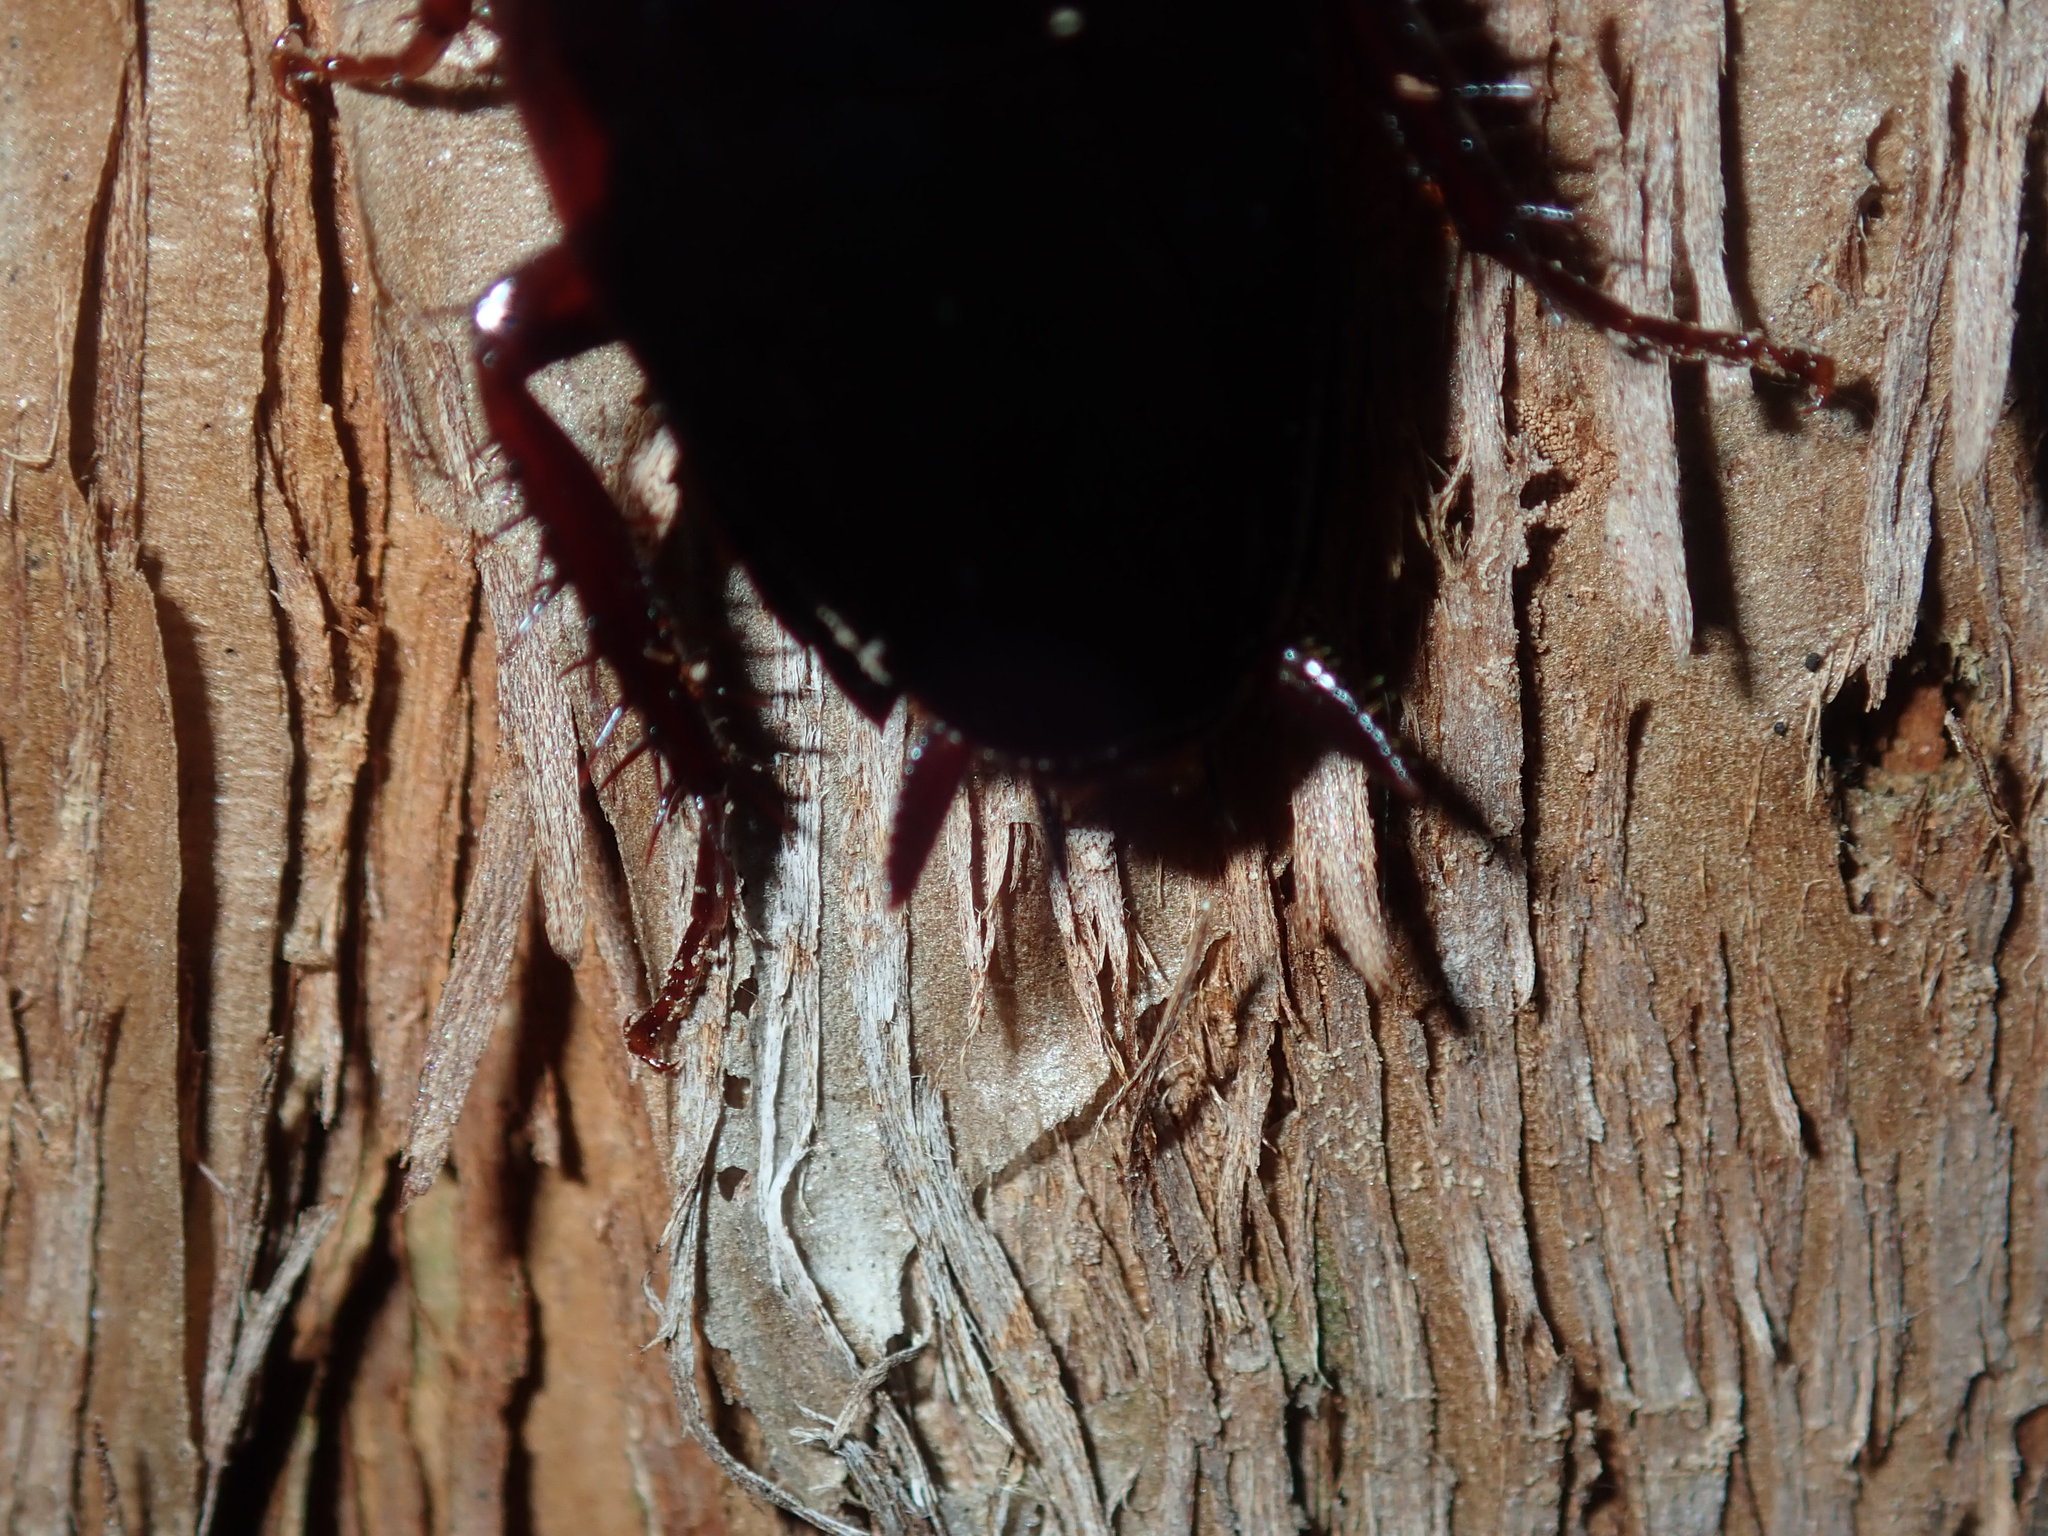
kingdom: Animalia
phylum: Arthropoda
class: Insecta
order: Blattodea
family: Blattidae
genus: Methana
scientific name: Methana convexa
